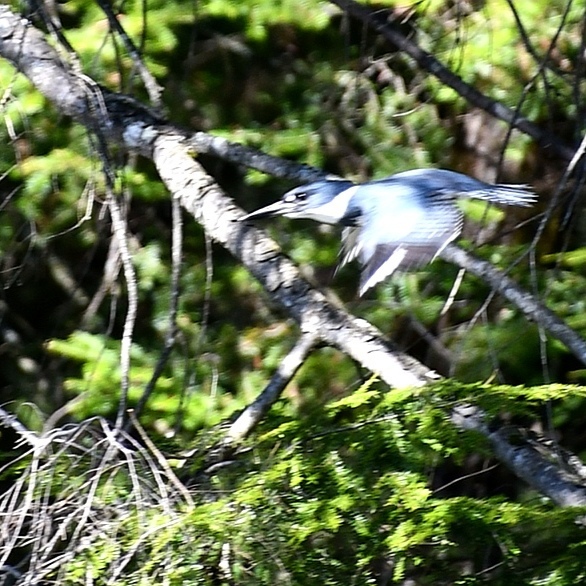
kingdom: Animalia
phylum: Chordata
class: Aves
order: Coraciiformes
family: Alcedinidae
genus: Megaceryle
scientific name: Megaceryle alcyon
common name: Belted kingfisher
